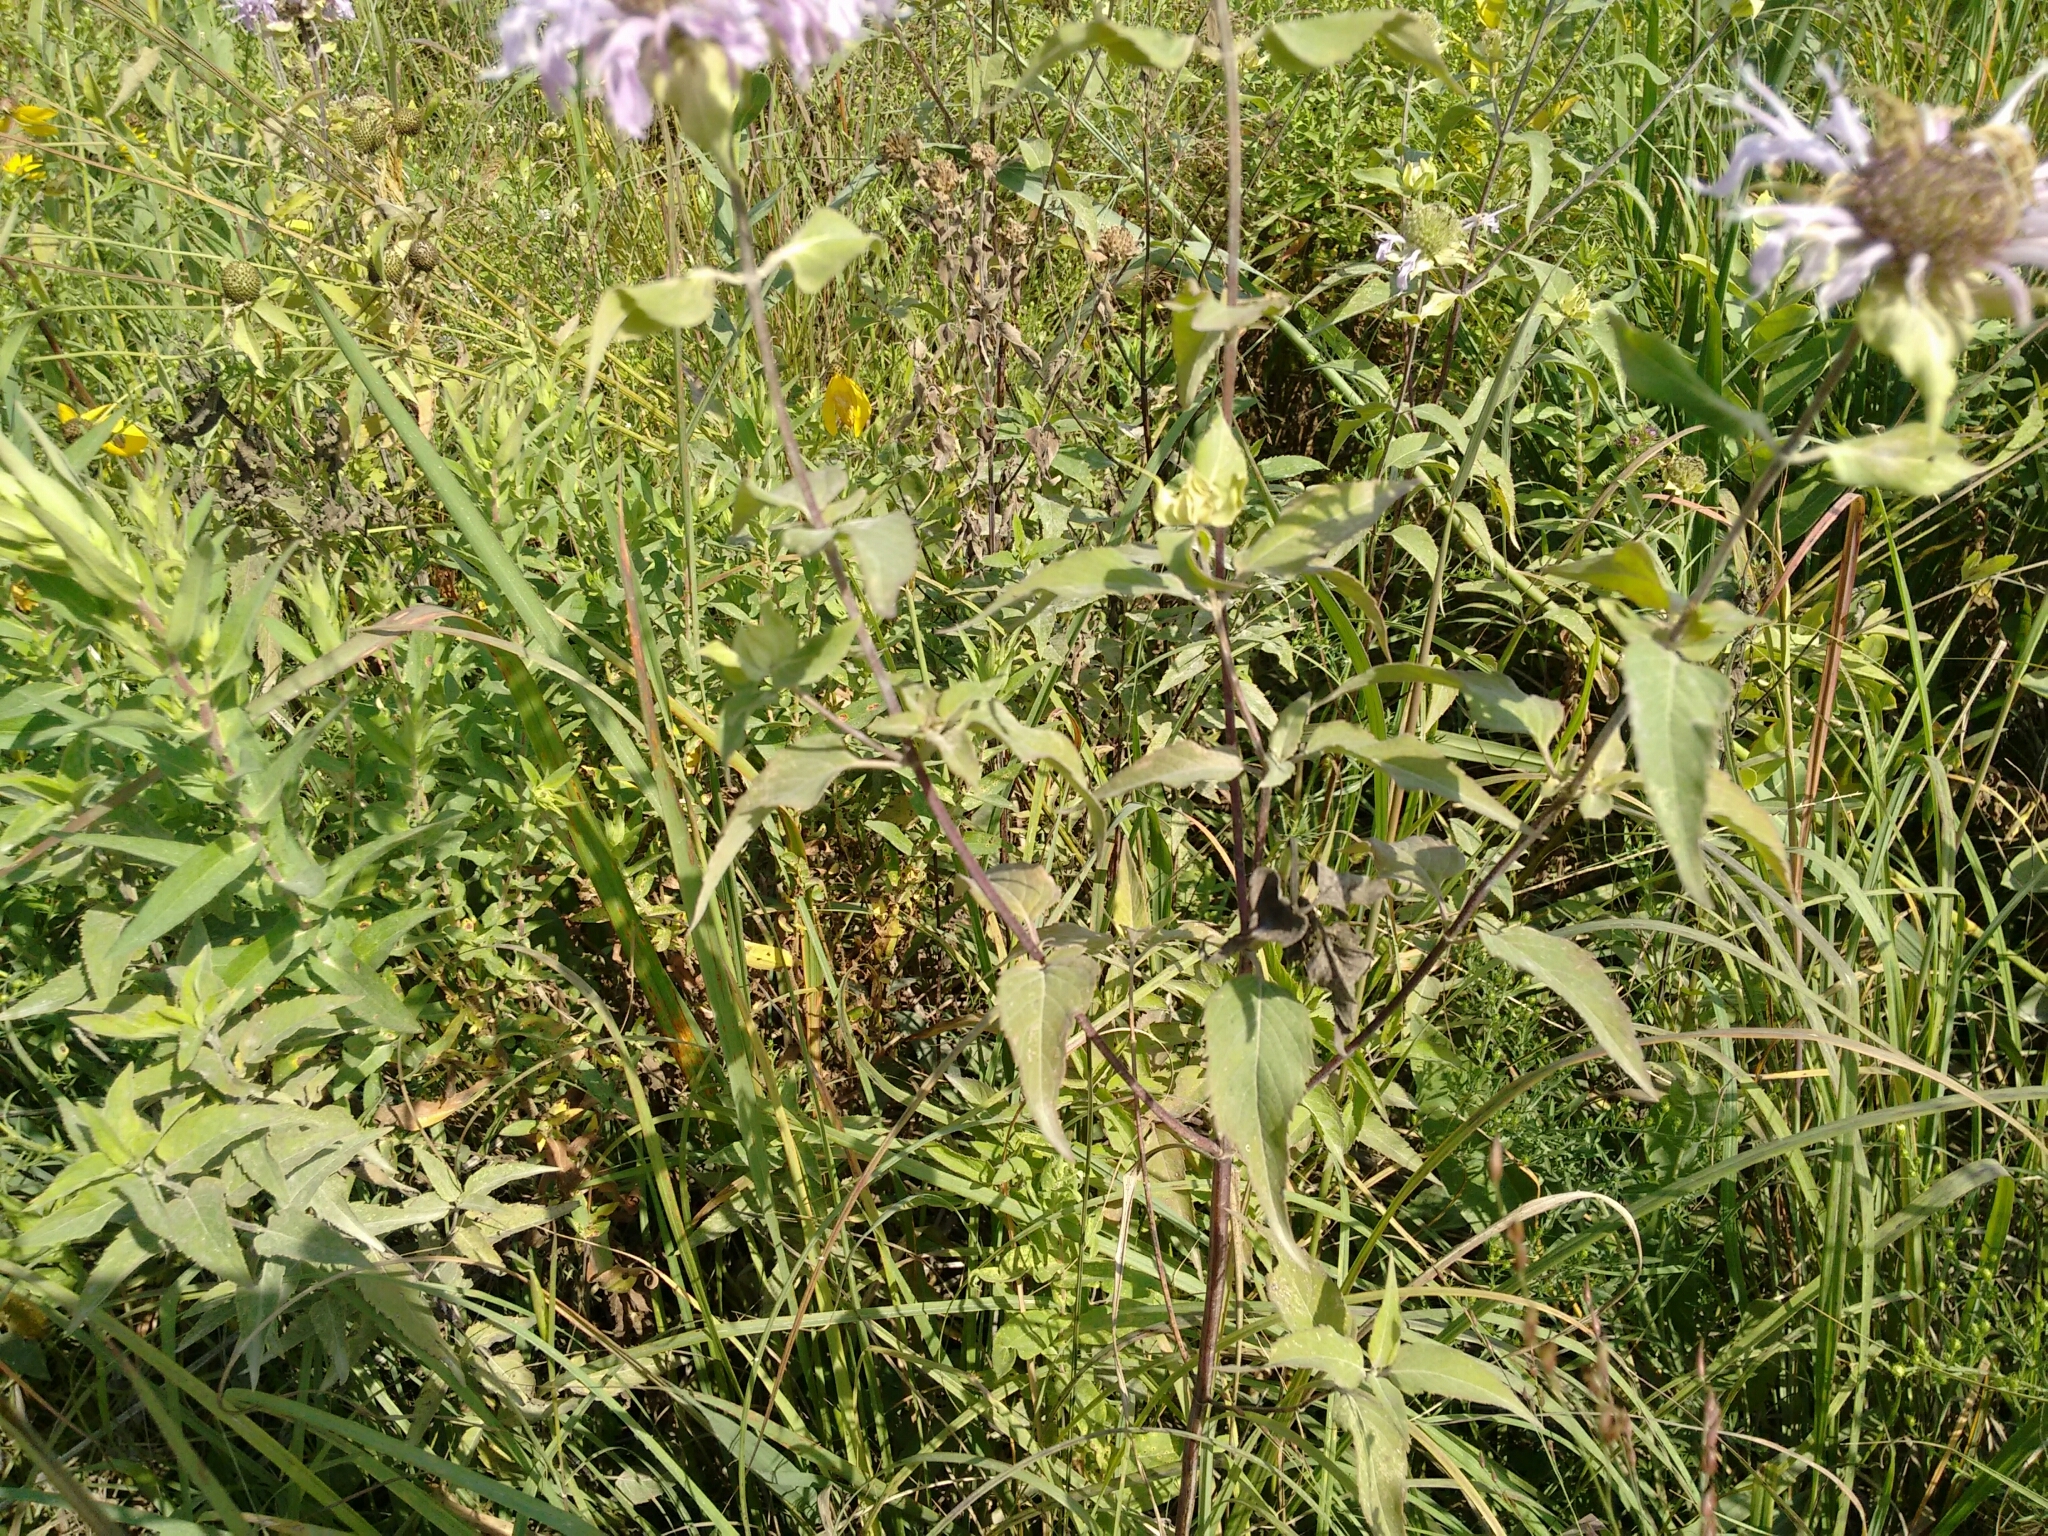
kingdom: Plantae
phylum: Tracheophyta
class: Magnoliopsida
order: Lamiales
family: Lamiaceae
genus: Monarda
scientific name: Monarda fistulosa
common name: Purple beebalm
